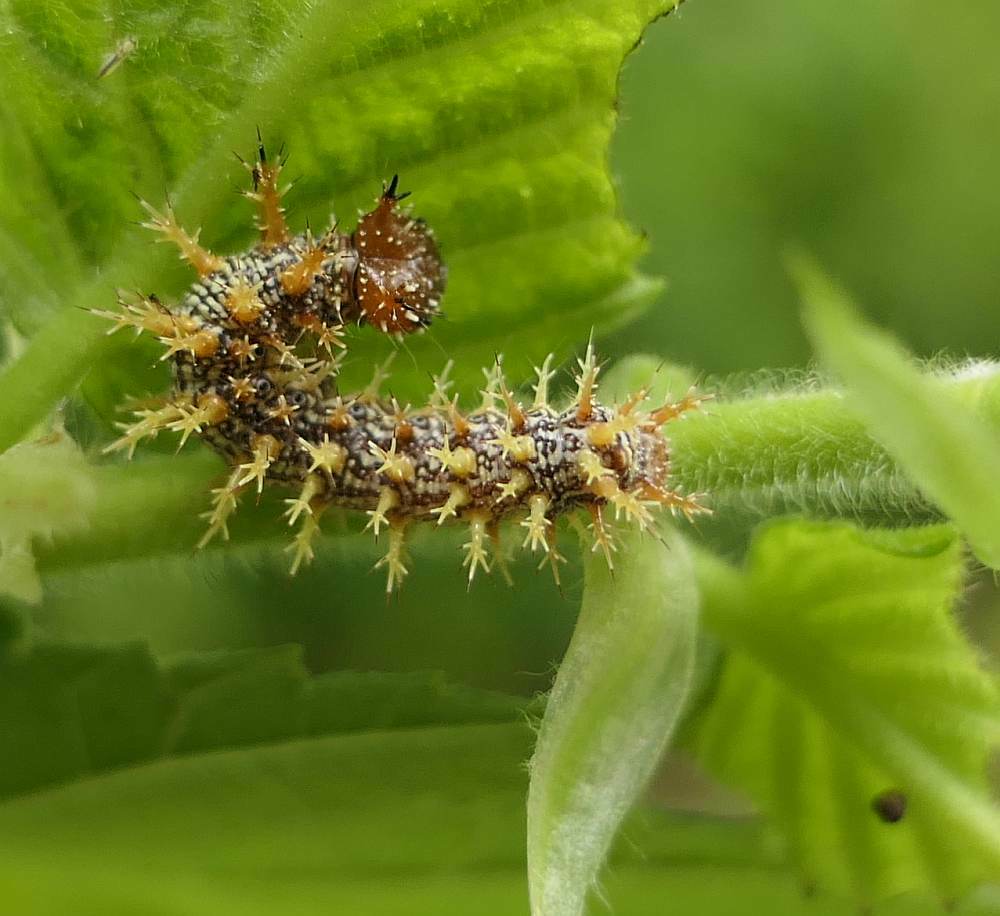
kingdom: Animalia
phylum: Arthropoda
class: Insecta
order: Lepidoptera
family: Nymphalidae
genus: Polygonia
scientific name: Polygonia interrogationis
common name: Question mark
